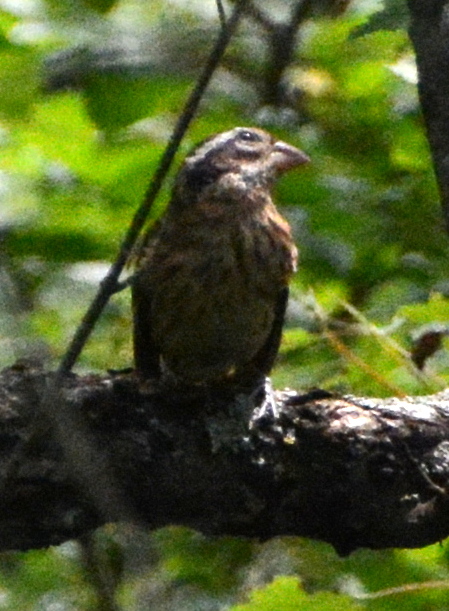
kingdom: Animalia
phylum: Chordata
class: Aves
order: Passeriformes
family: Cardinalidae
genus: Pheucticus
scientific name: Pheucticus ludovicianus
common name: Rose-breasted grosbeak
